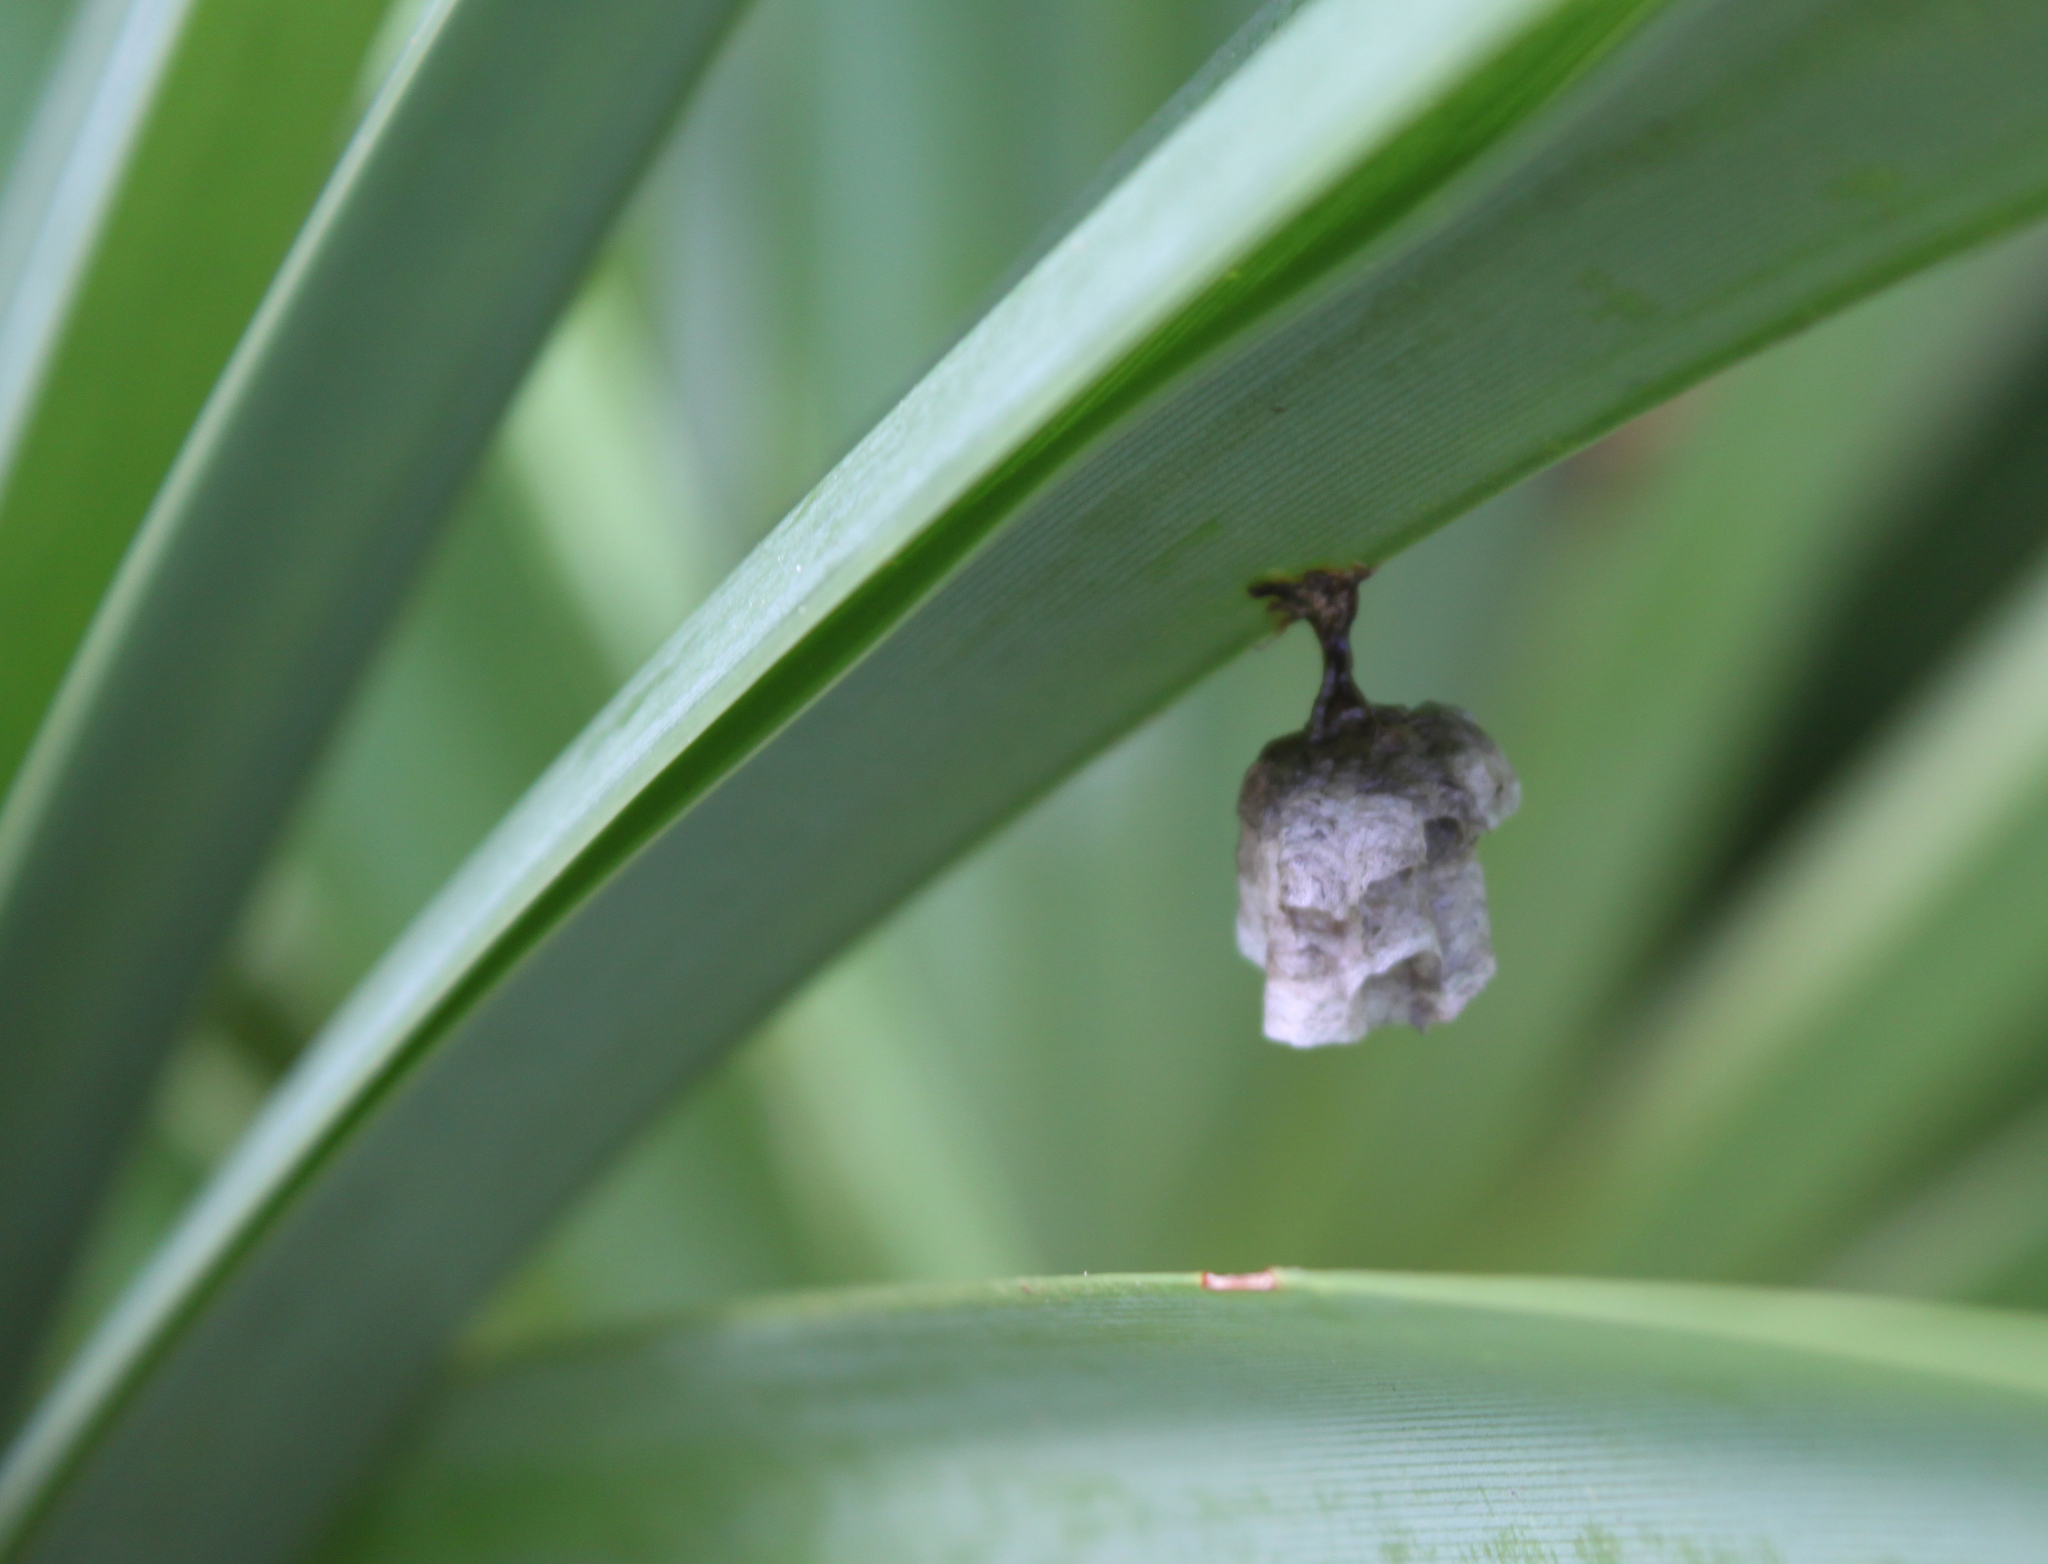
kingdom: Animalia
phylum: Arthropoda
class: Insecta
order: Hymenoptera
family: Vespidae
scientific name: Vespidae
